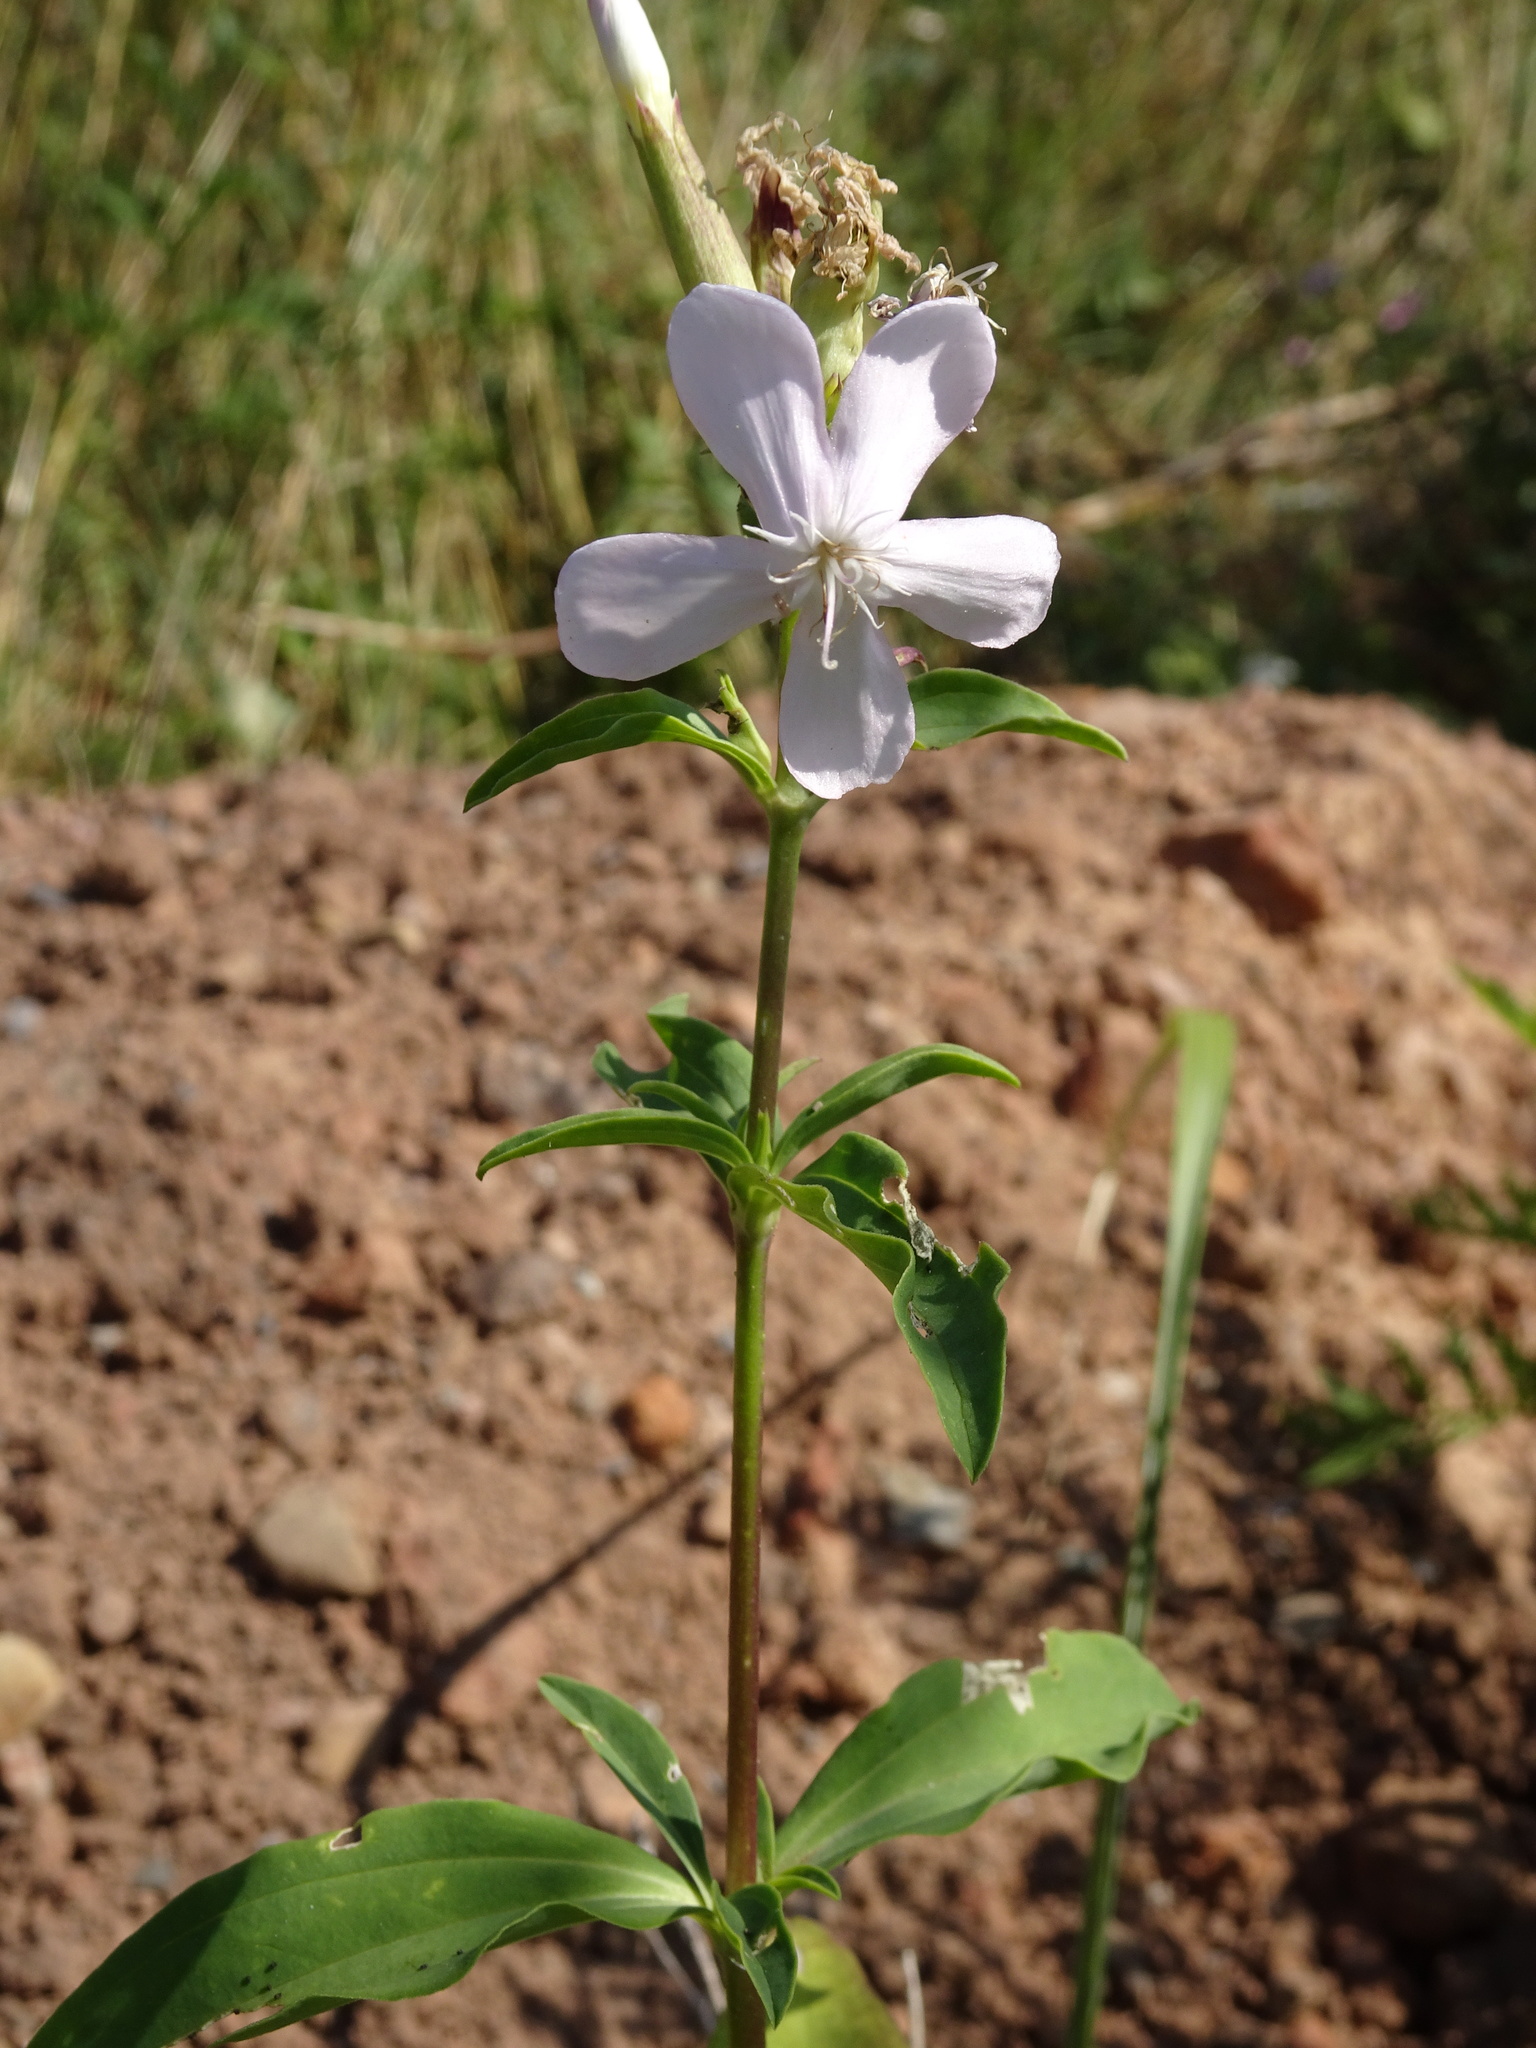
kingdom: Plantae
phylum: Tracheophyta
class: Magnoliopsida
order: Caryophyllales
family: Caryophyllaceae
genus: Saponaria
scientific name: Saponaria officinalis
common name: Soapwort
